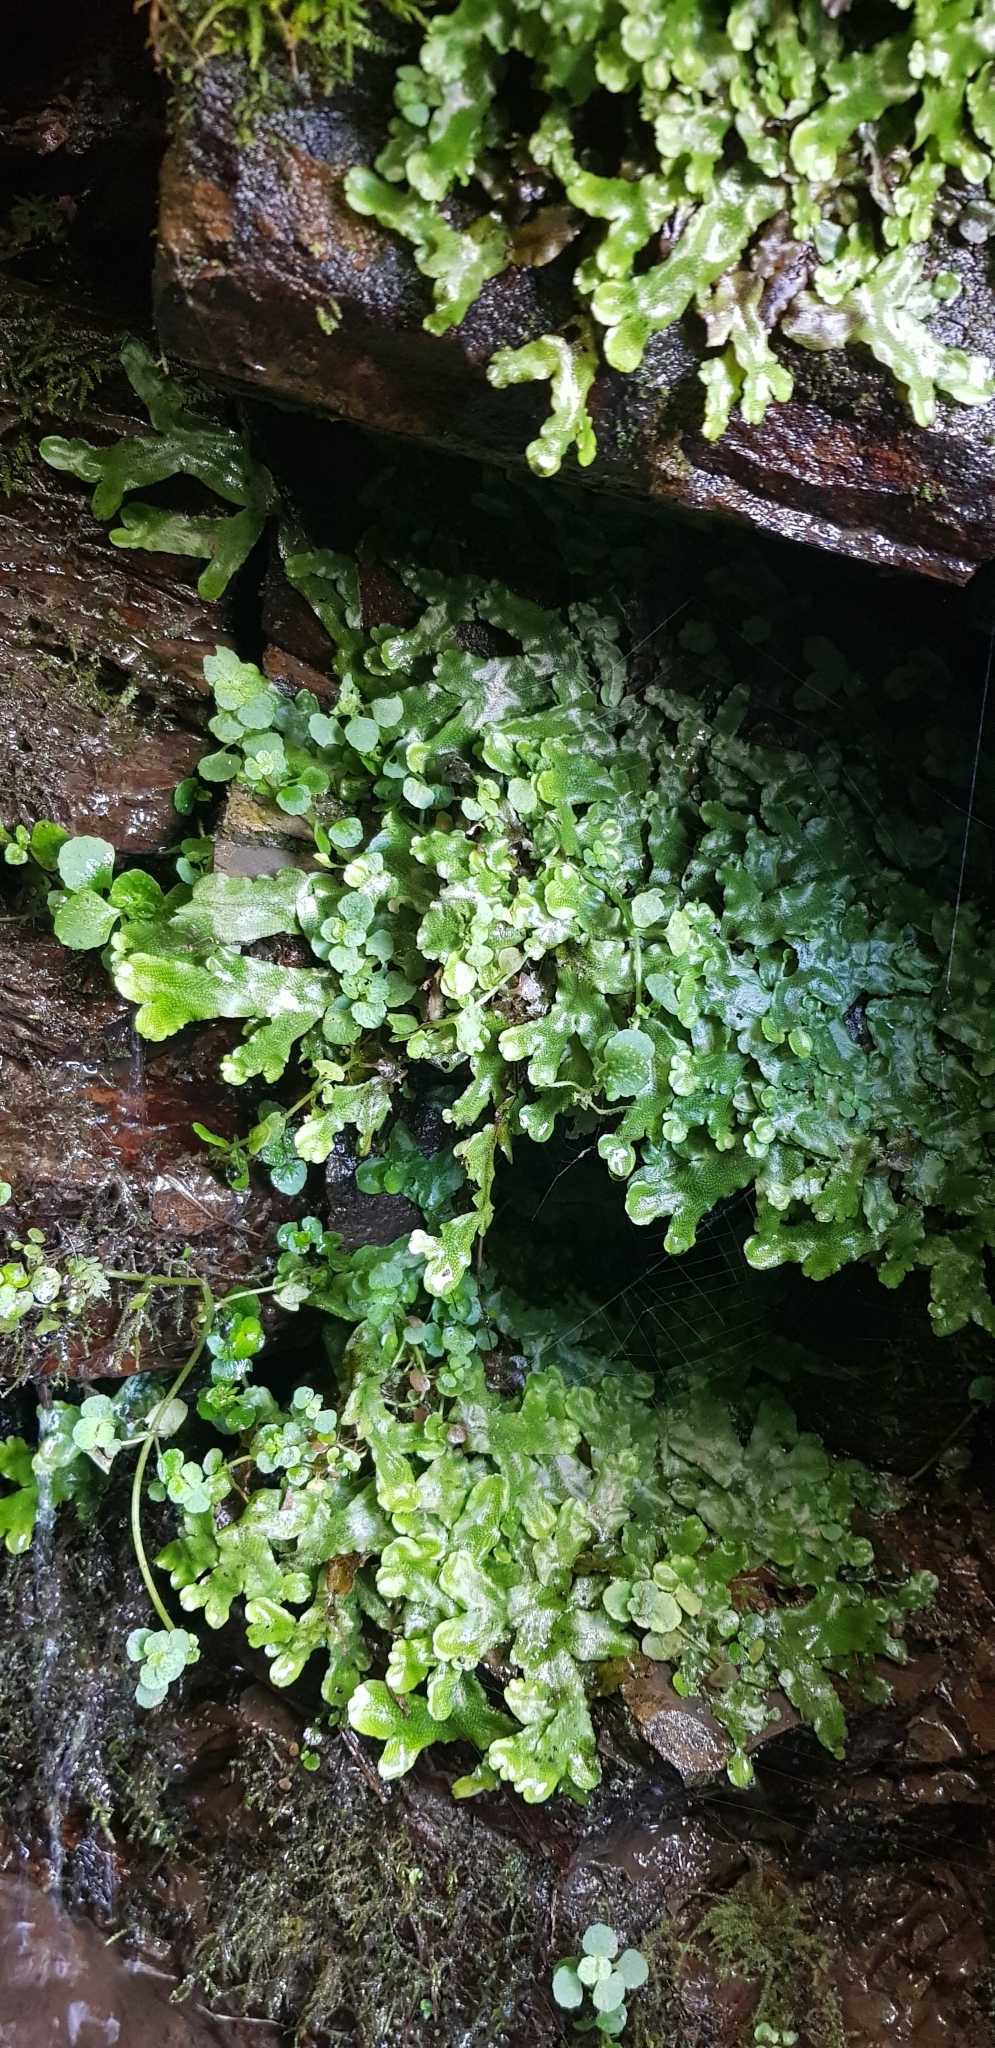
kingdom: Plantae
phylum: Marchantiophyta
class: Marchantiopsida
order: Marchantiales
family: Conocephalaceae
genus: Conocephalum
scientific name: Conocephalum conicum
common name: Great scented liverwort
